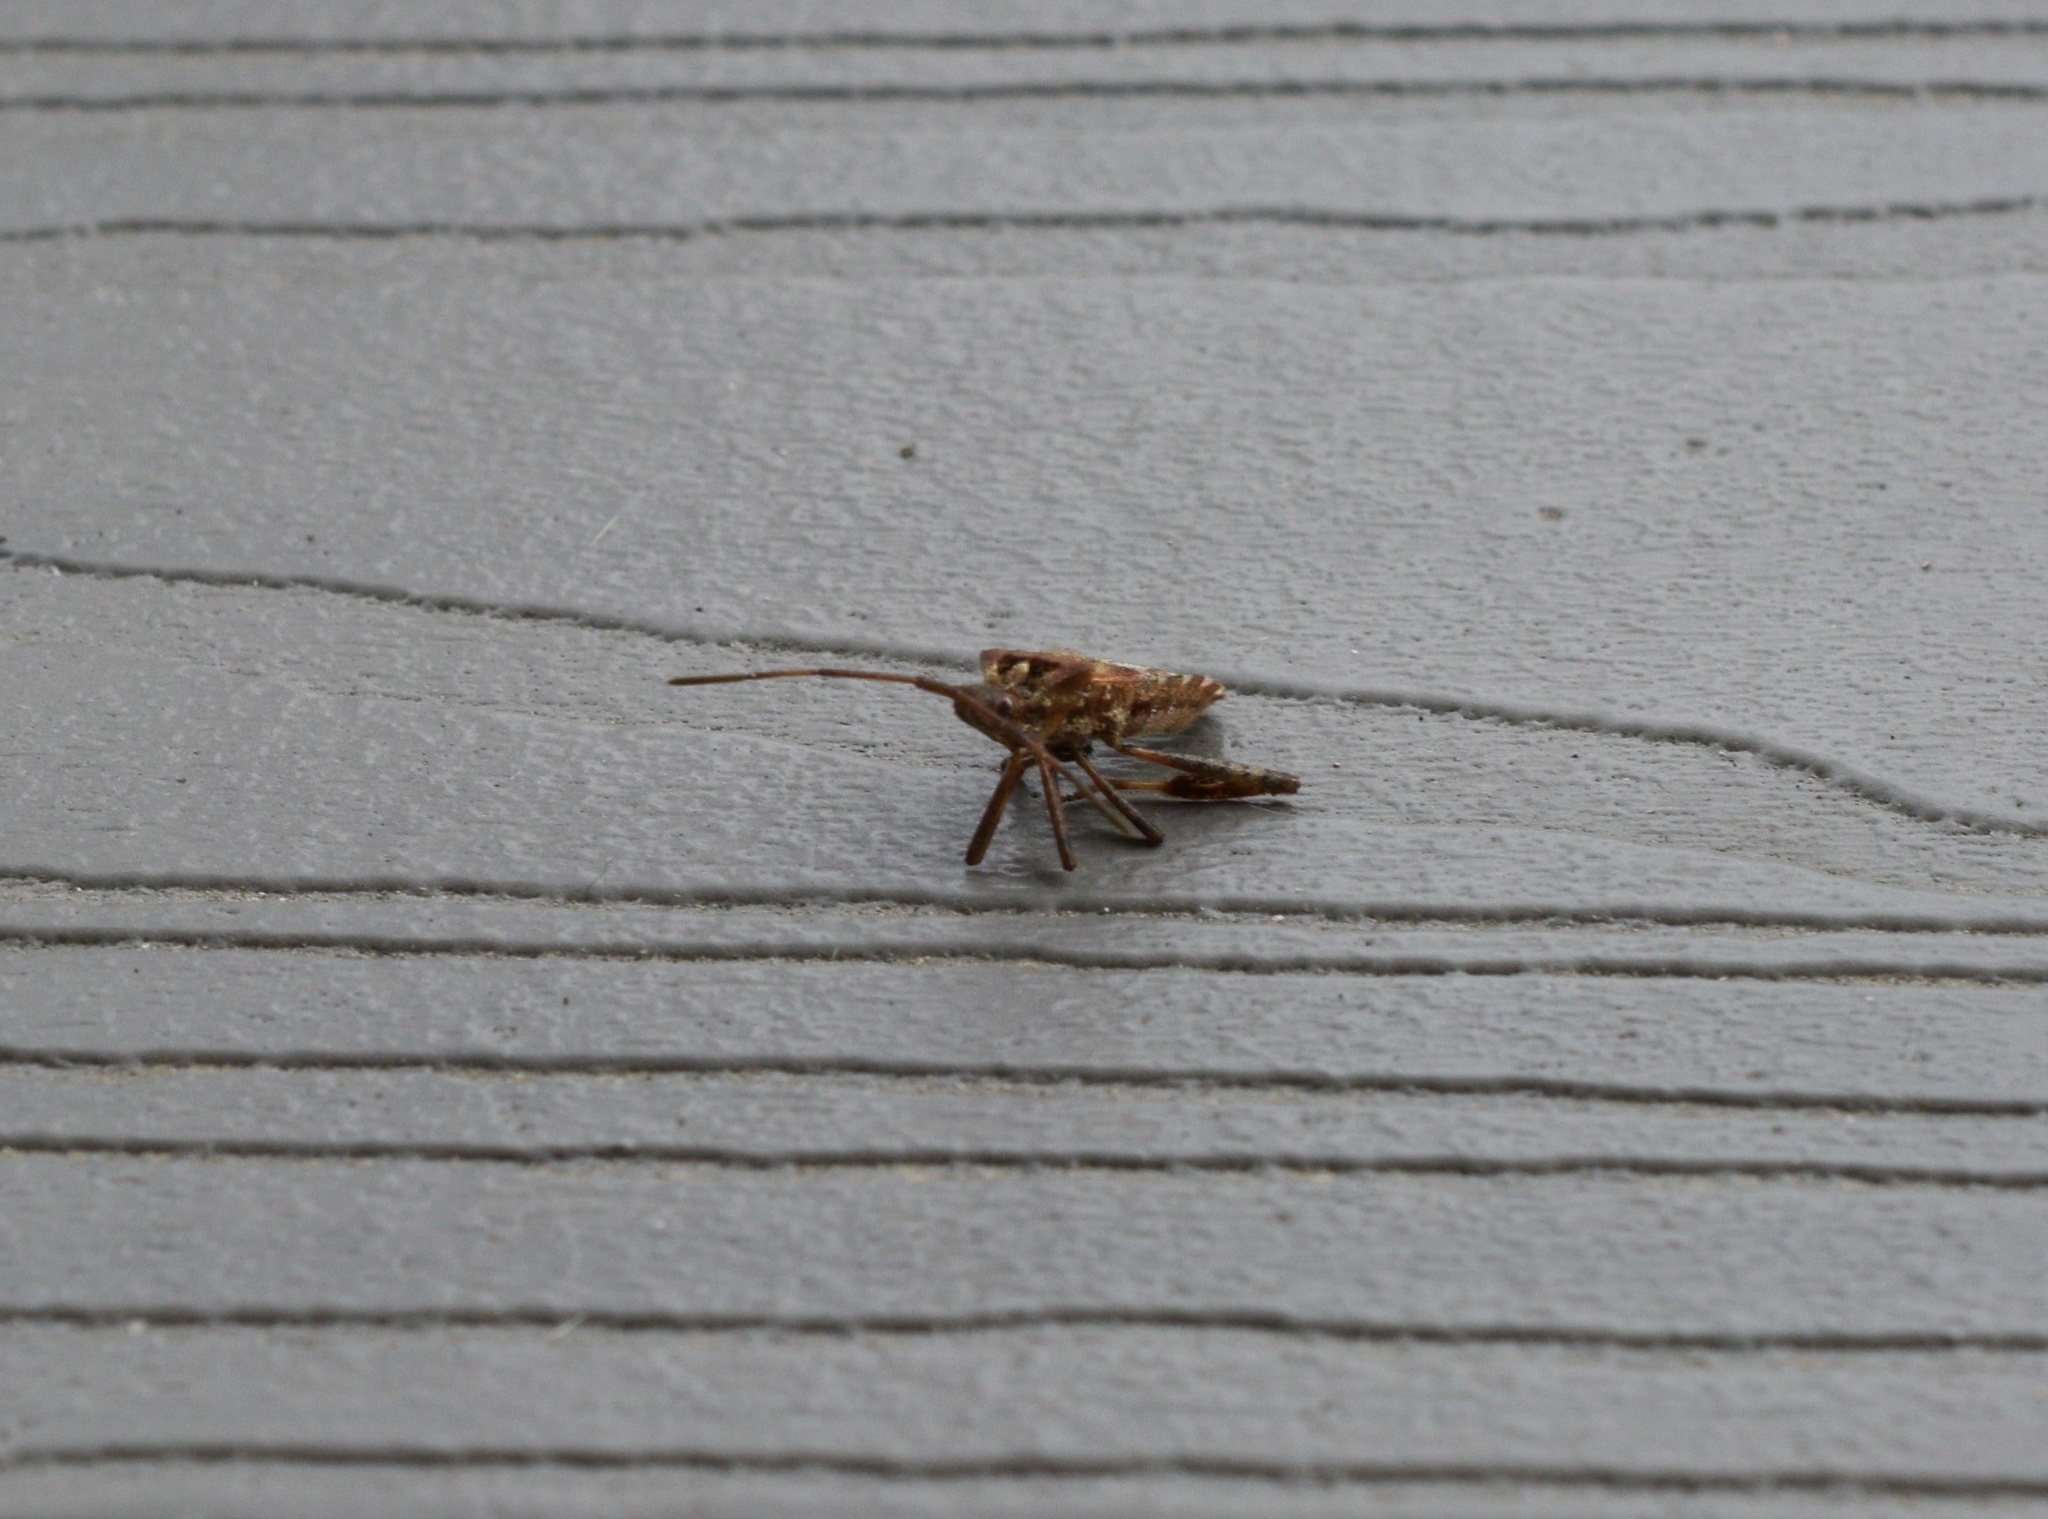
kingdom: Animalia
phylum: Arthropoda
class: Insecta
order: Hemiptera
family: Coreidae
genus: Leptoglossus
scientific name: Leptoglossus occidentalis
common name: Western conifer-seed bug
